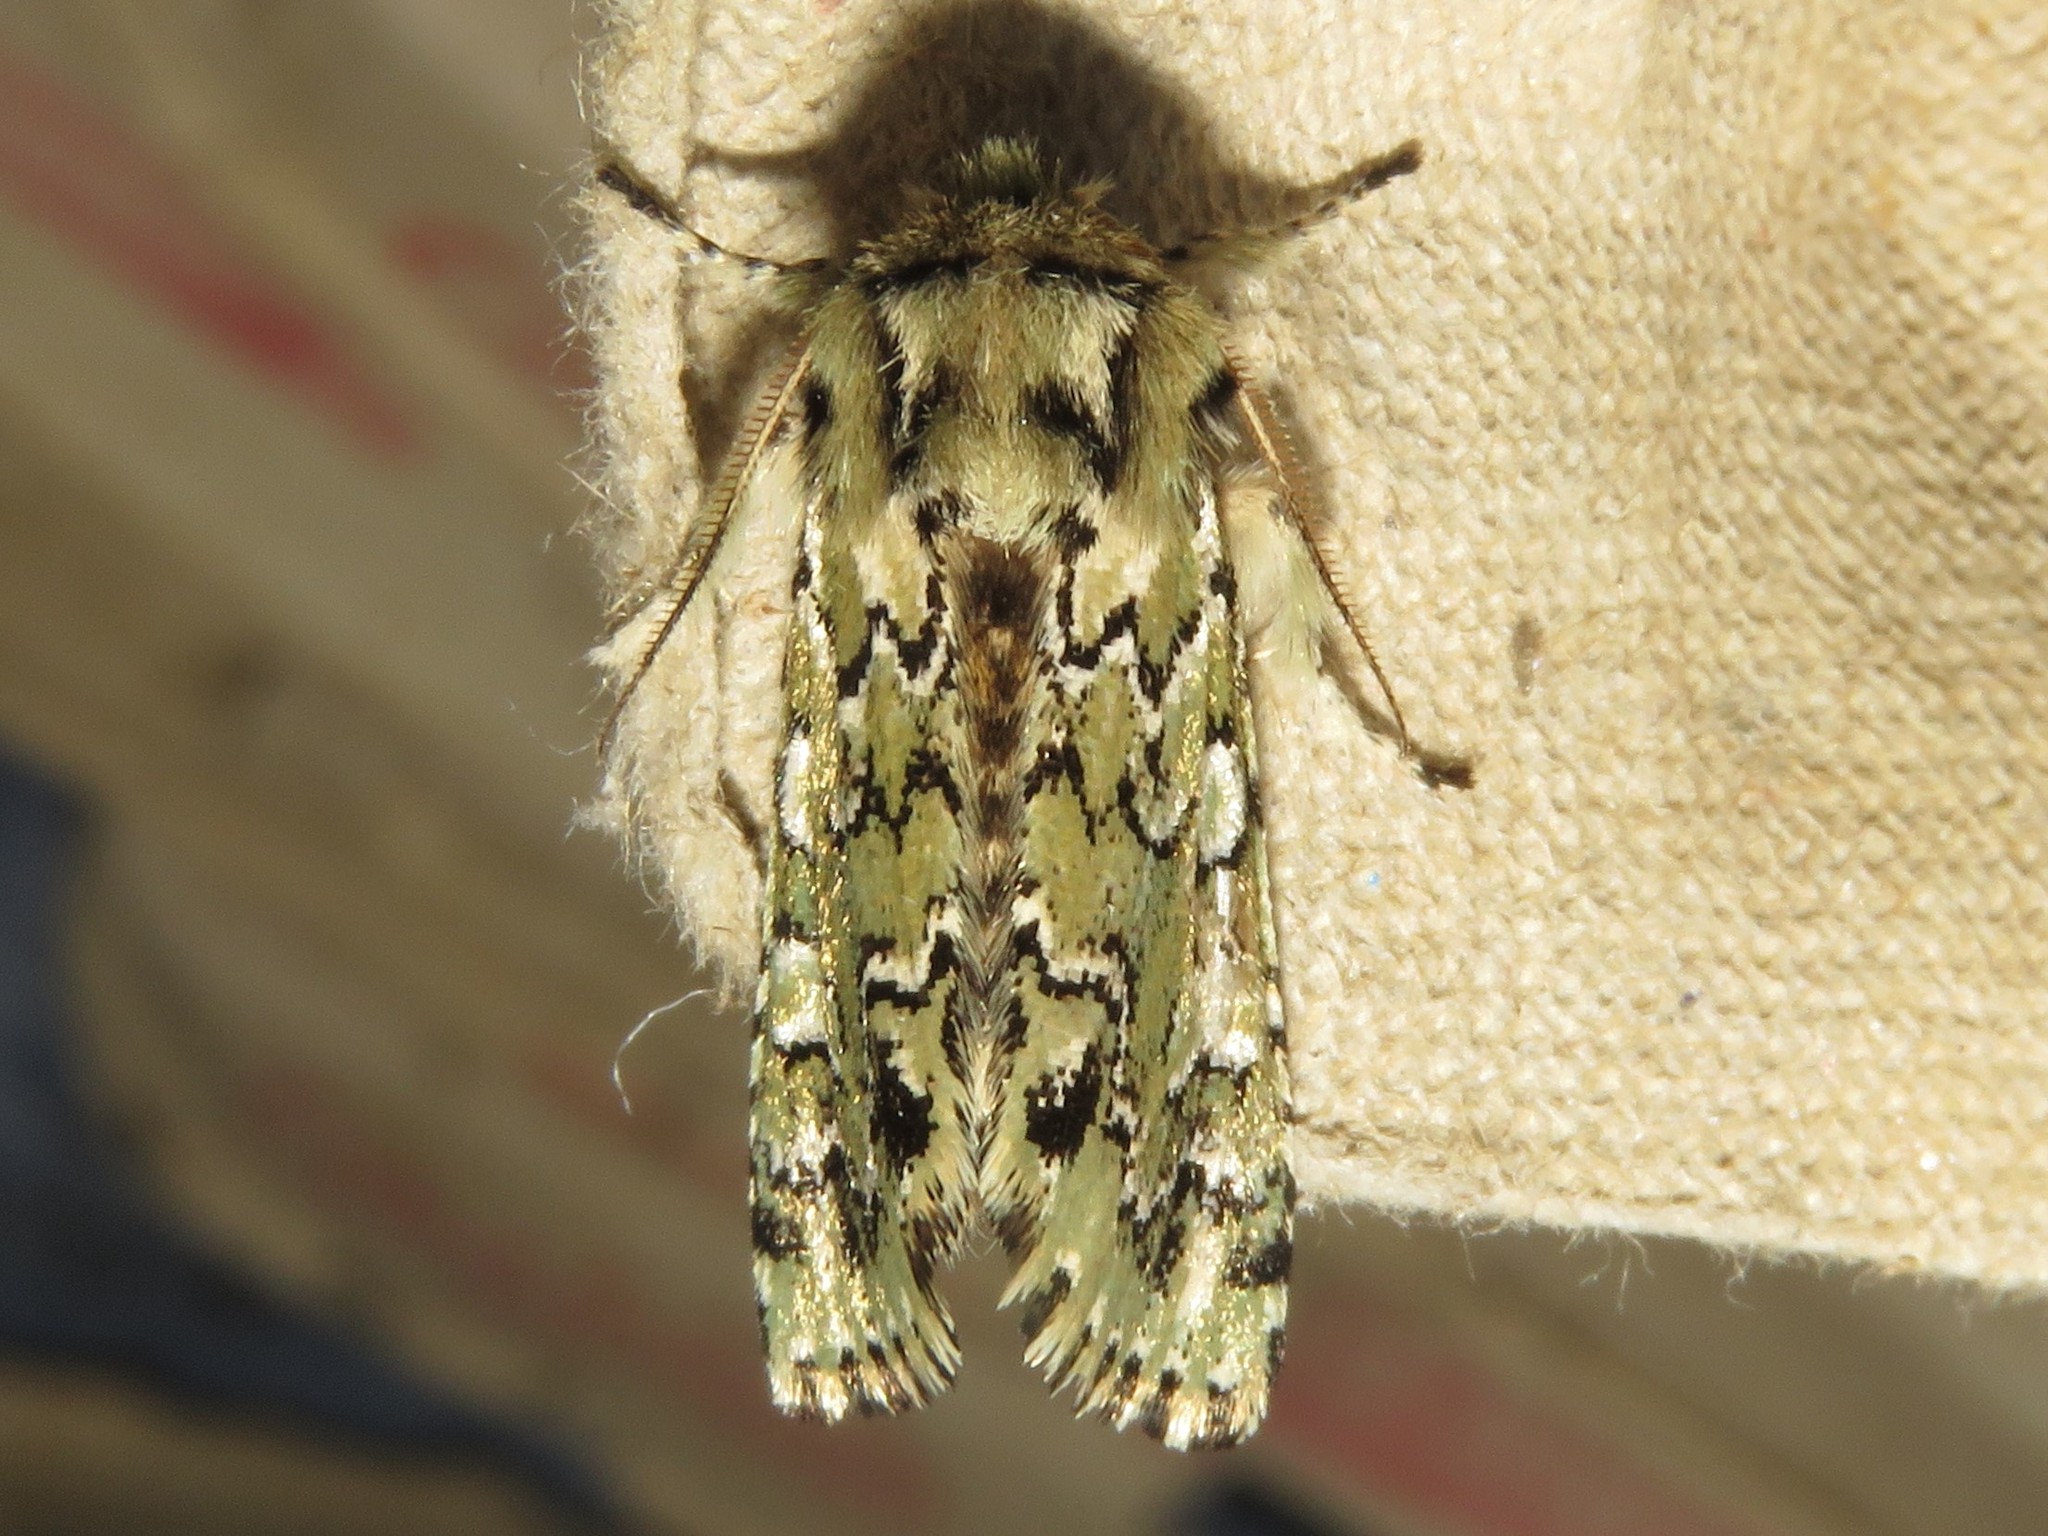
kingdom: Animalia
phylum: Arthropoda
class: Insecta
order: Lepidoptera
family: Noctuidae
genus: Feralia
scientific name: Feralia jocosa
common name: Joker
